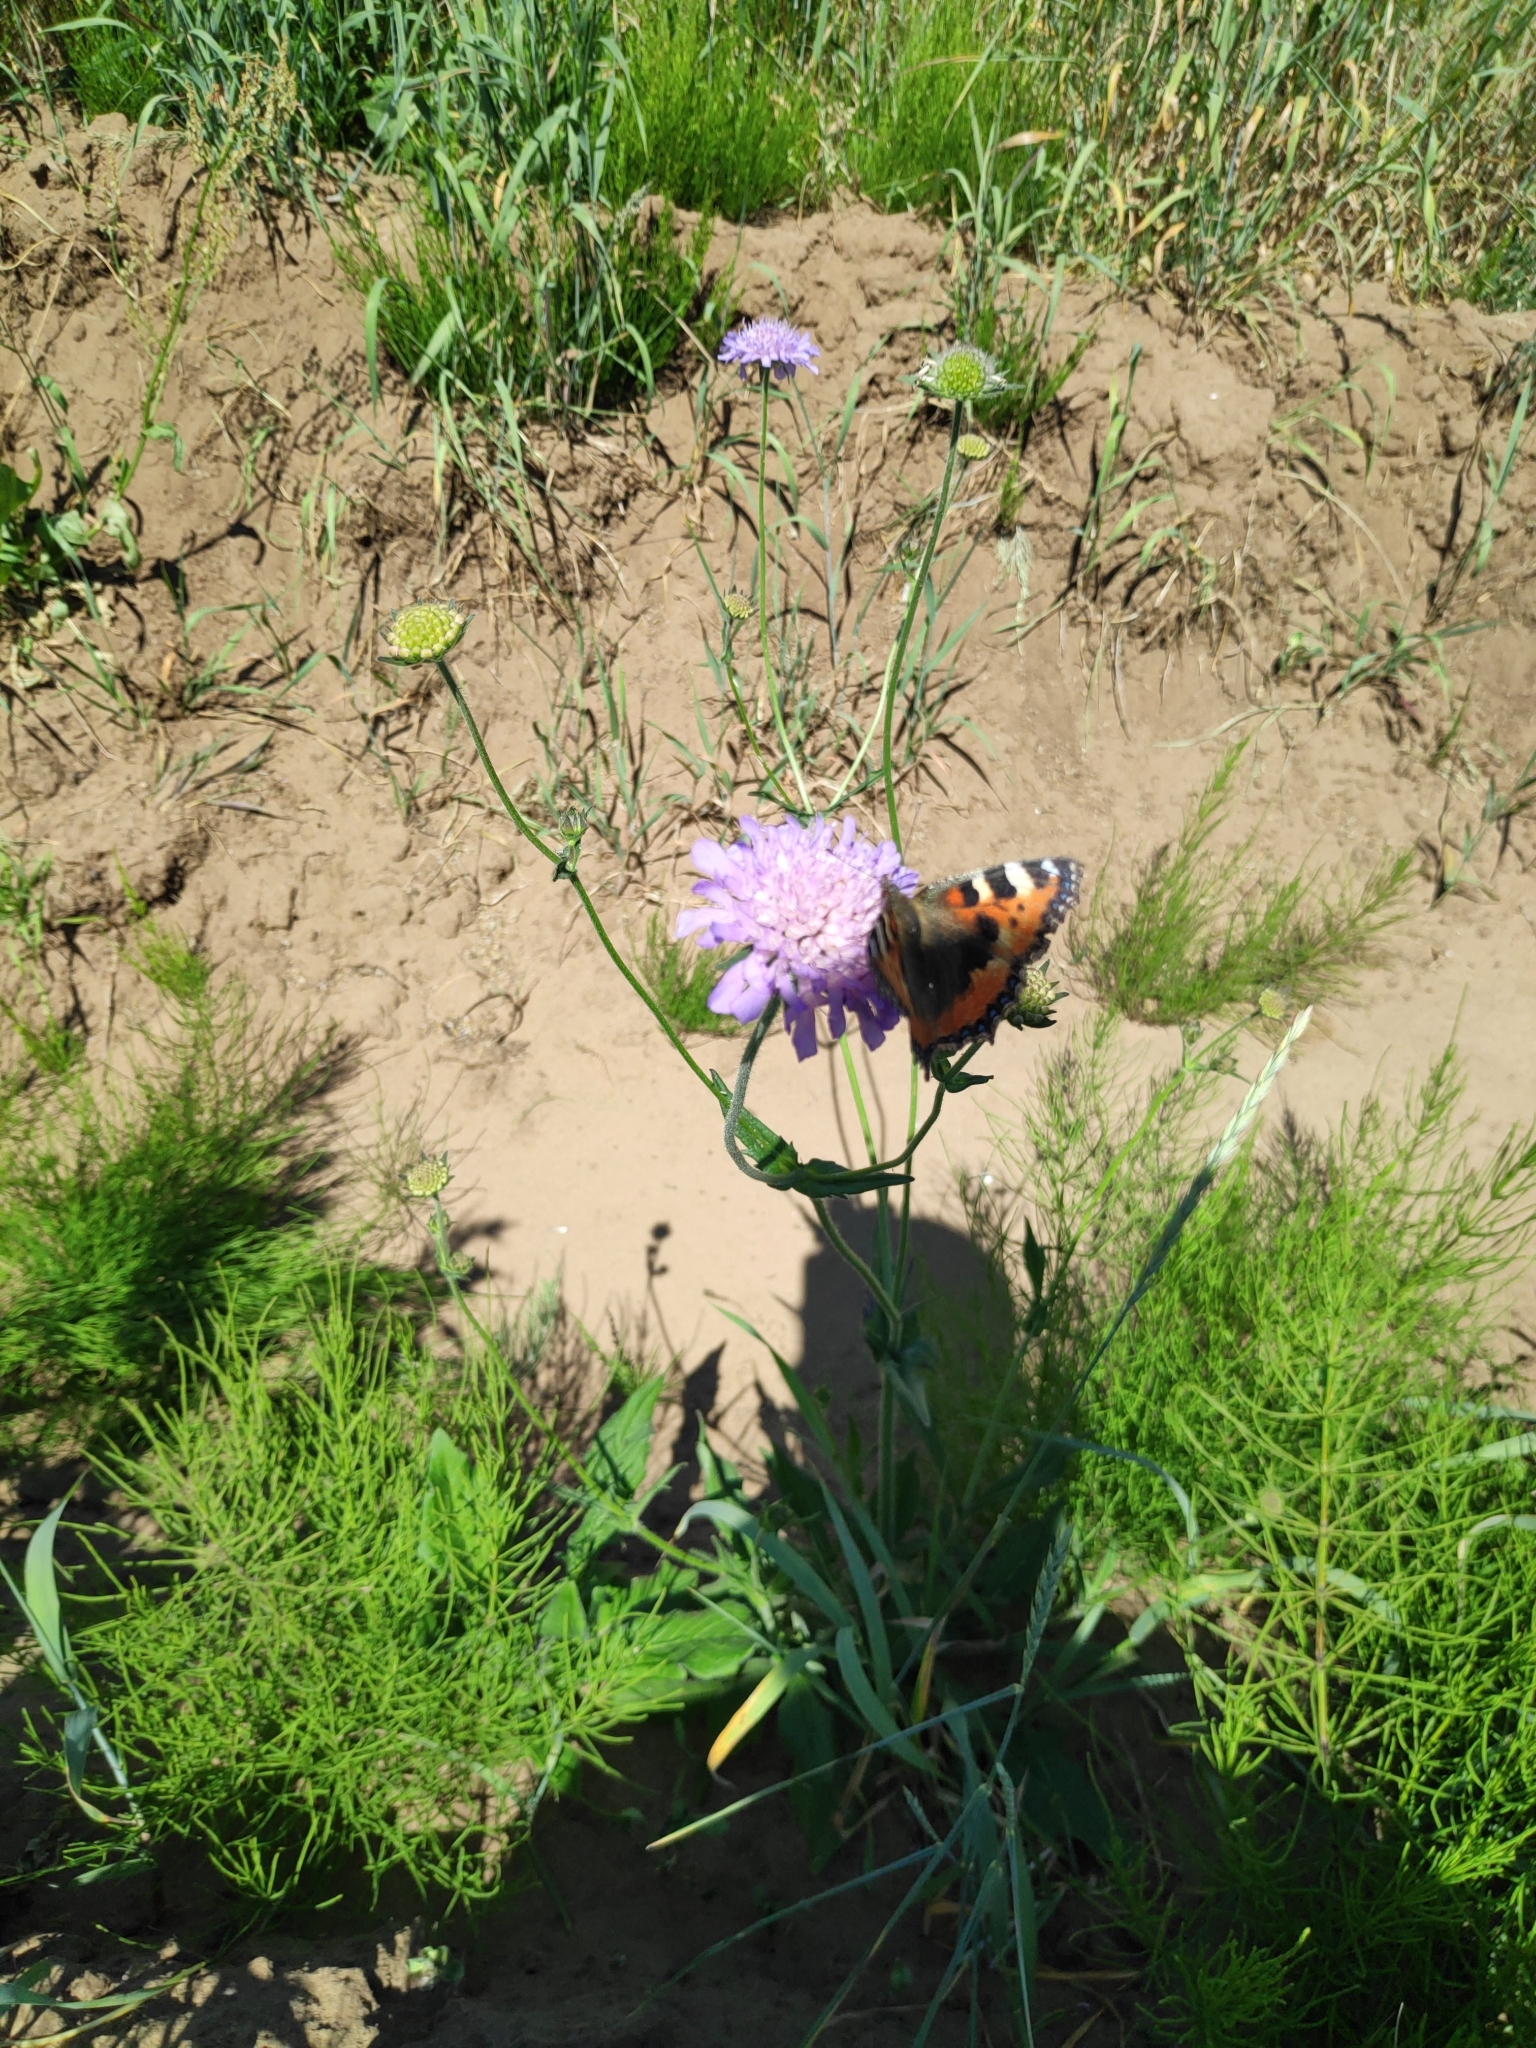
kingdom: Animalia
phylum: Arthropoda
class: Insecta
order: Lepidoptera
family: Nymphalidae
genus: Aglais
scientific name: Aglais urticae
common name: Small tortoiseshell
